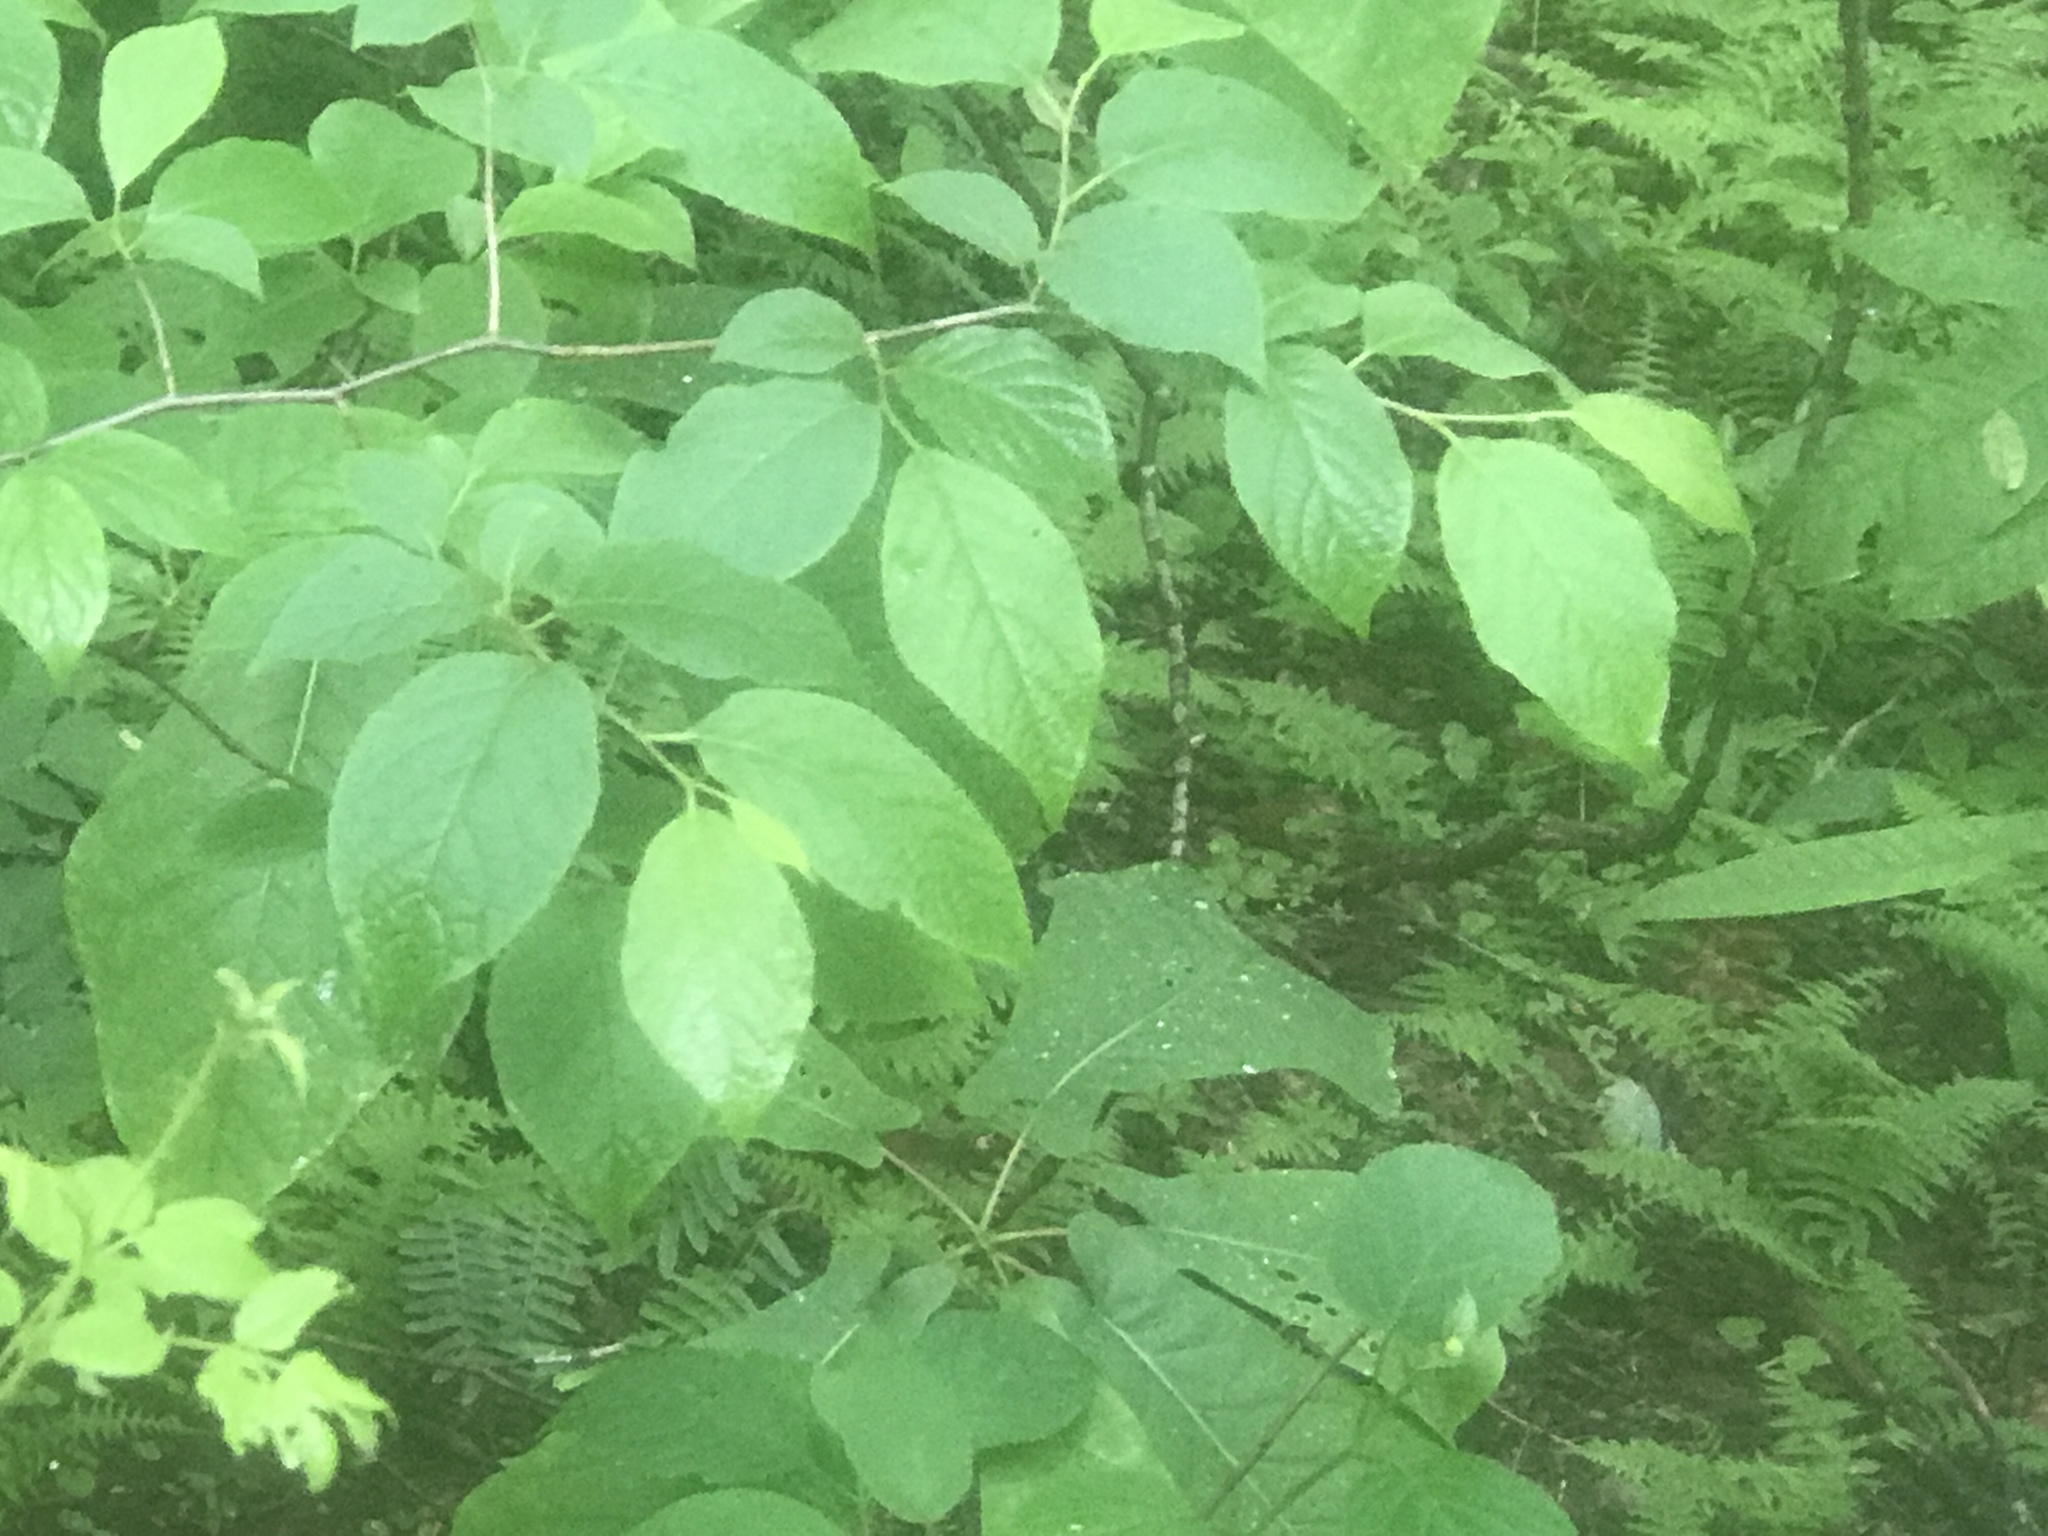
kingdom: Plantae
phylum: Tracheophyta
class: Magnoliopsida
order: Ericales
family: Styracaceae
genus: Halesia
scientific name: Halesia tetraptera
